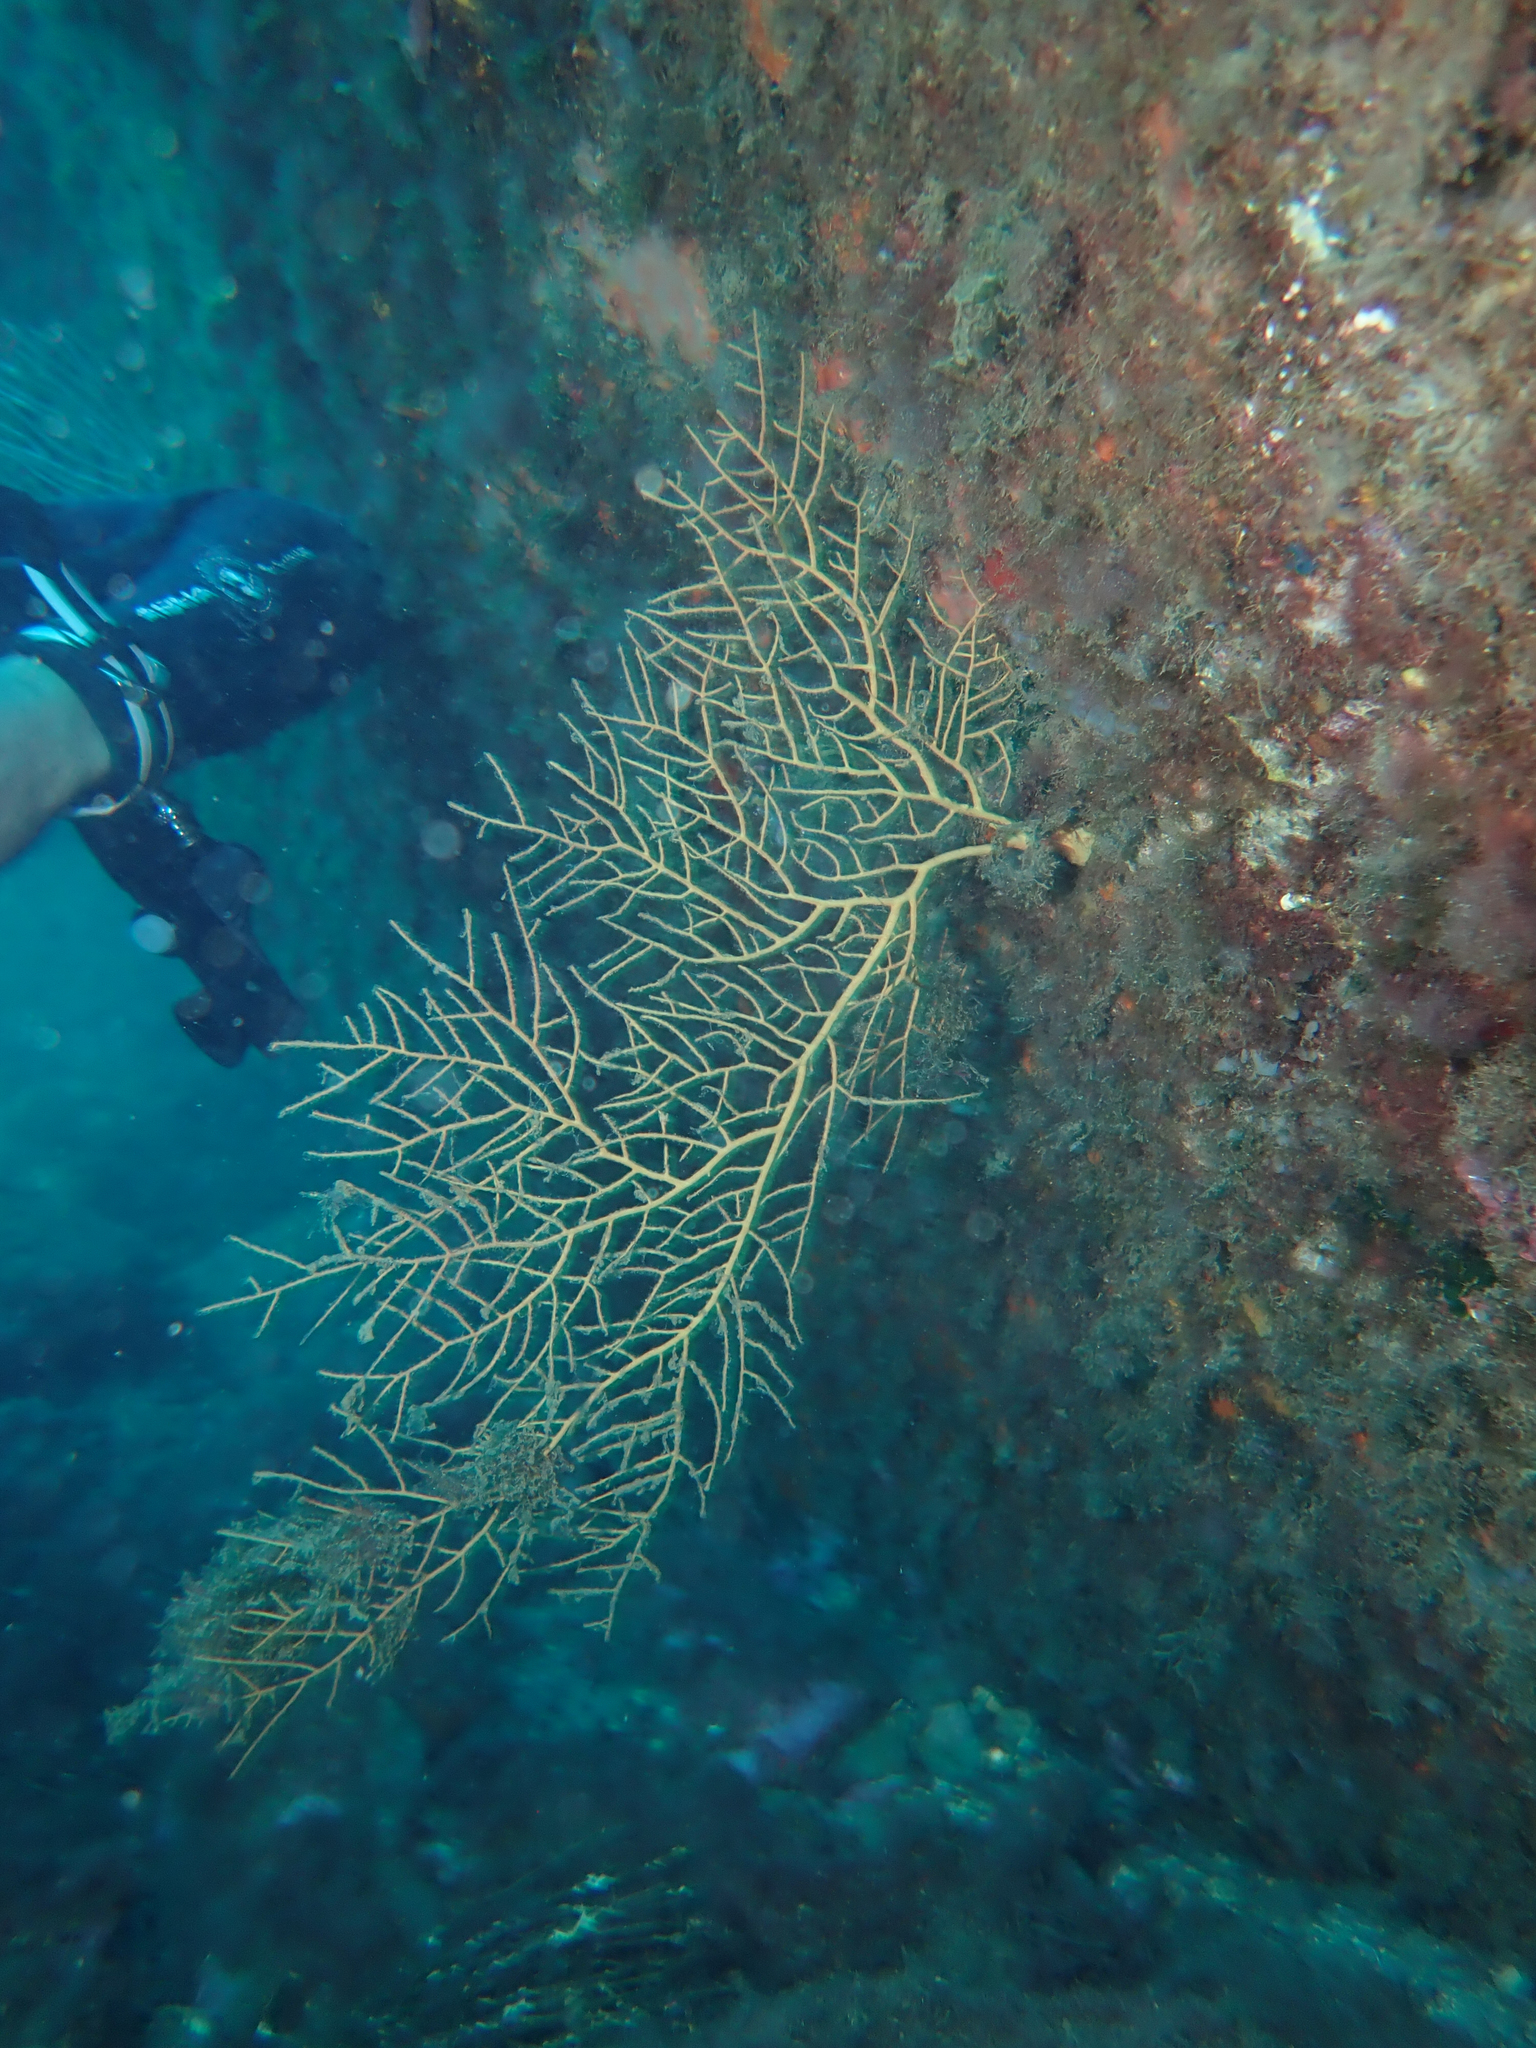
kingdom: Animalia
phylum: Cnidaria
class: Anthozoa
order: Malacalcyonacea
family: Gorgoniidae
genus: Leptogorgia
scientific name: Leptogorgia sarmentosa
